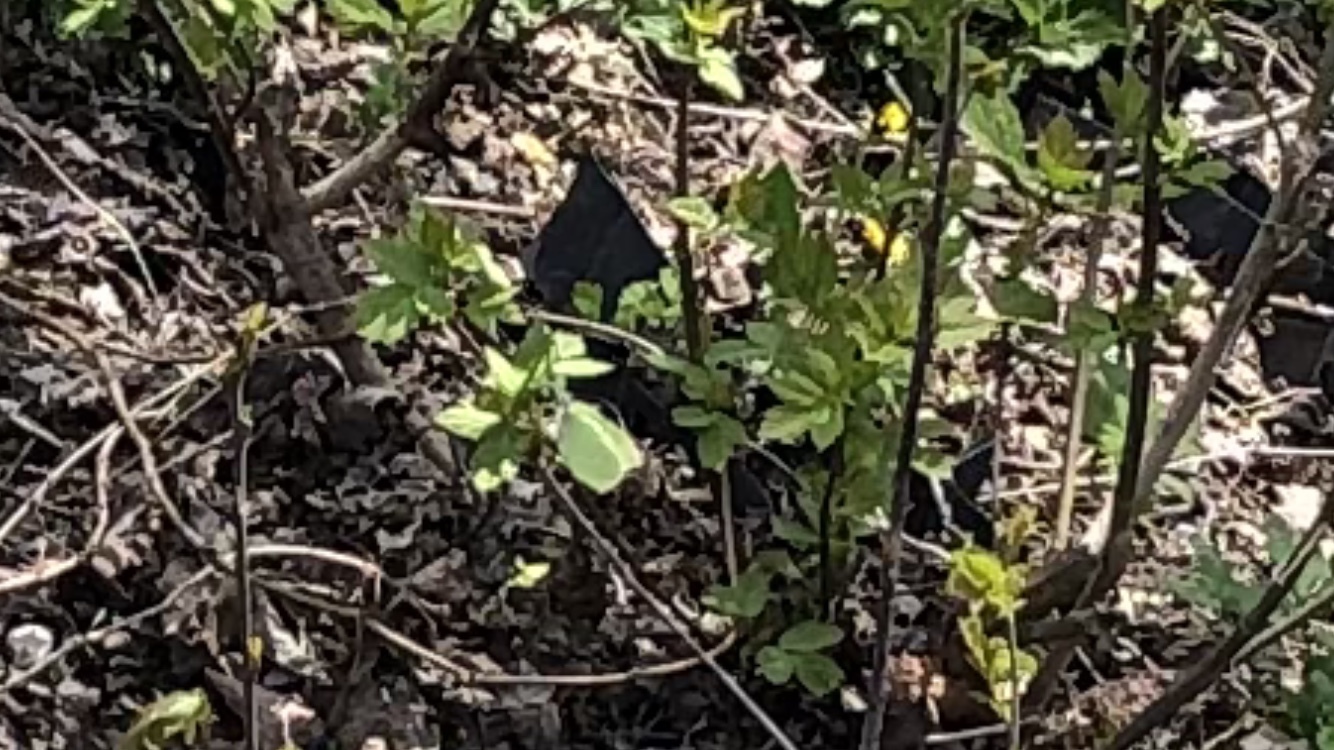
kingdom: Animalia
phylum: Arthropoda
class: Insecta
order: Lepidoptera
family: Pieridae
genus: Gonepteryx
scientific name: Gonepteryx rhamni
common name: Brimstone
